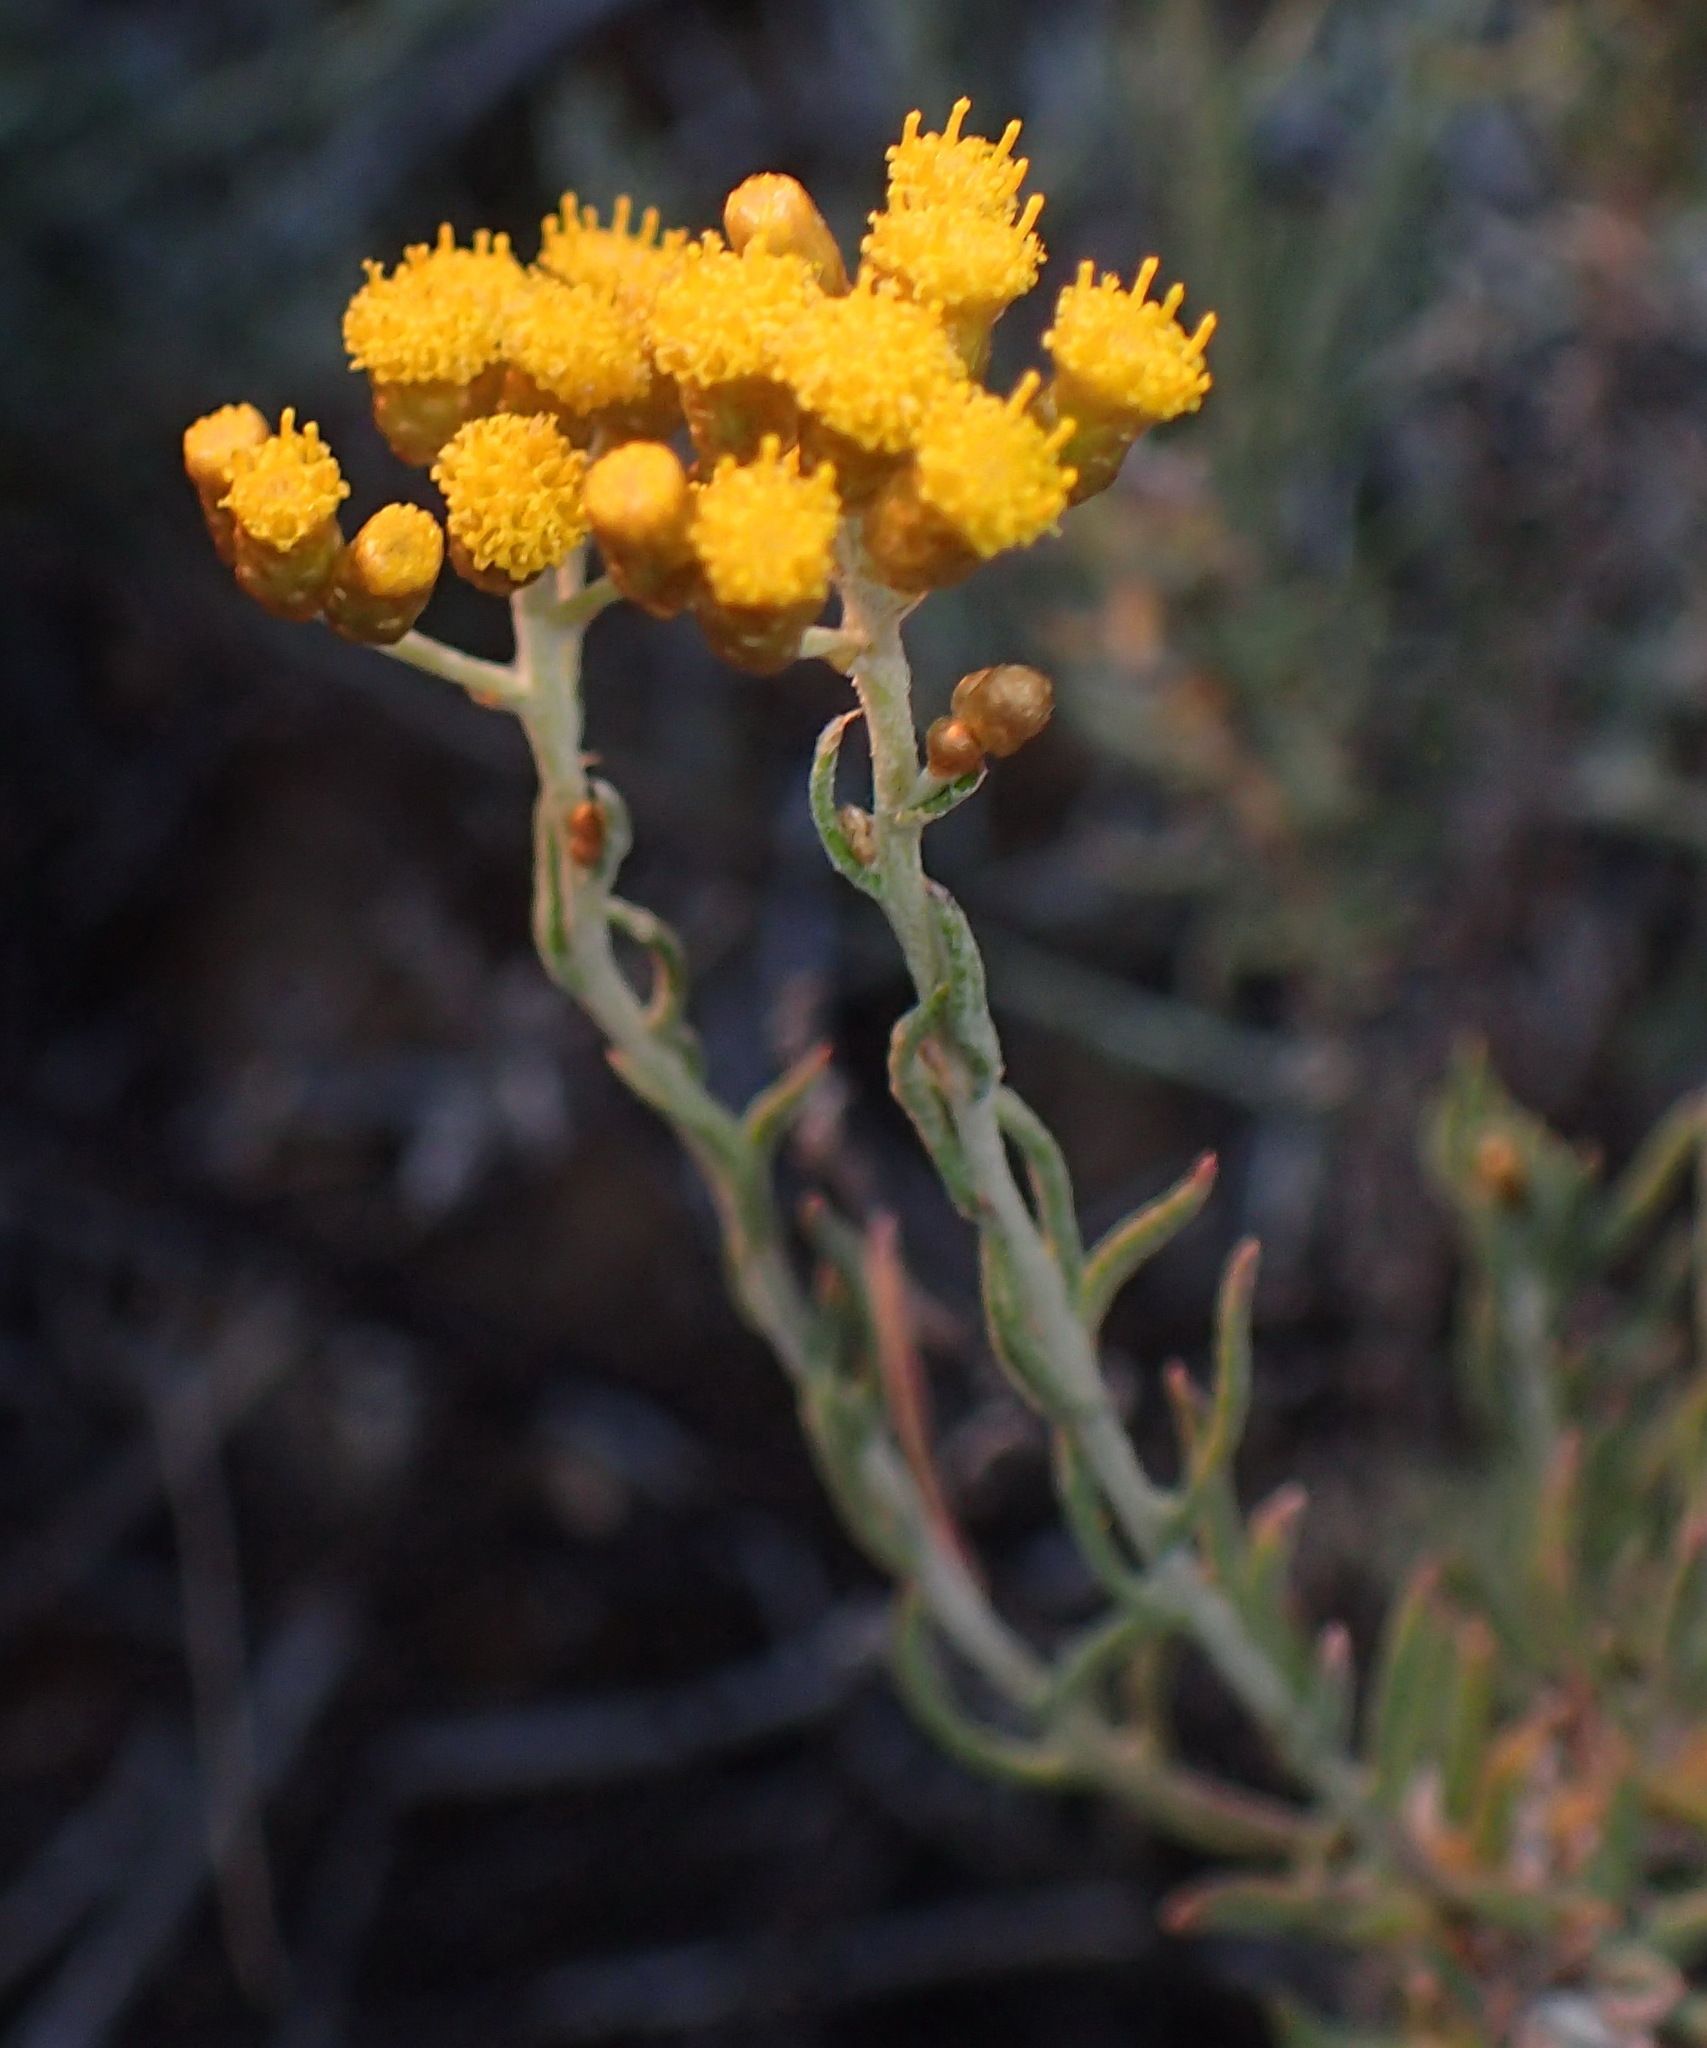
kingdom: Plantae
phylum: Tracheophyta
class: Magnoliopsida
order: Asterales
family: Asteraceae
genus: Helichrysum
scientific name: Helichrysum revolutum
